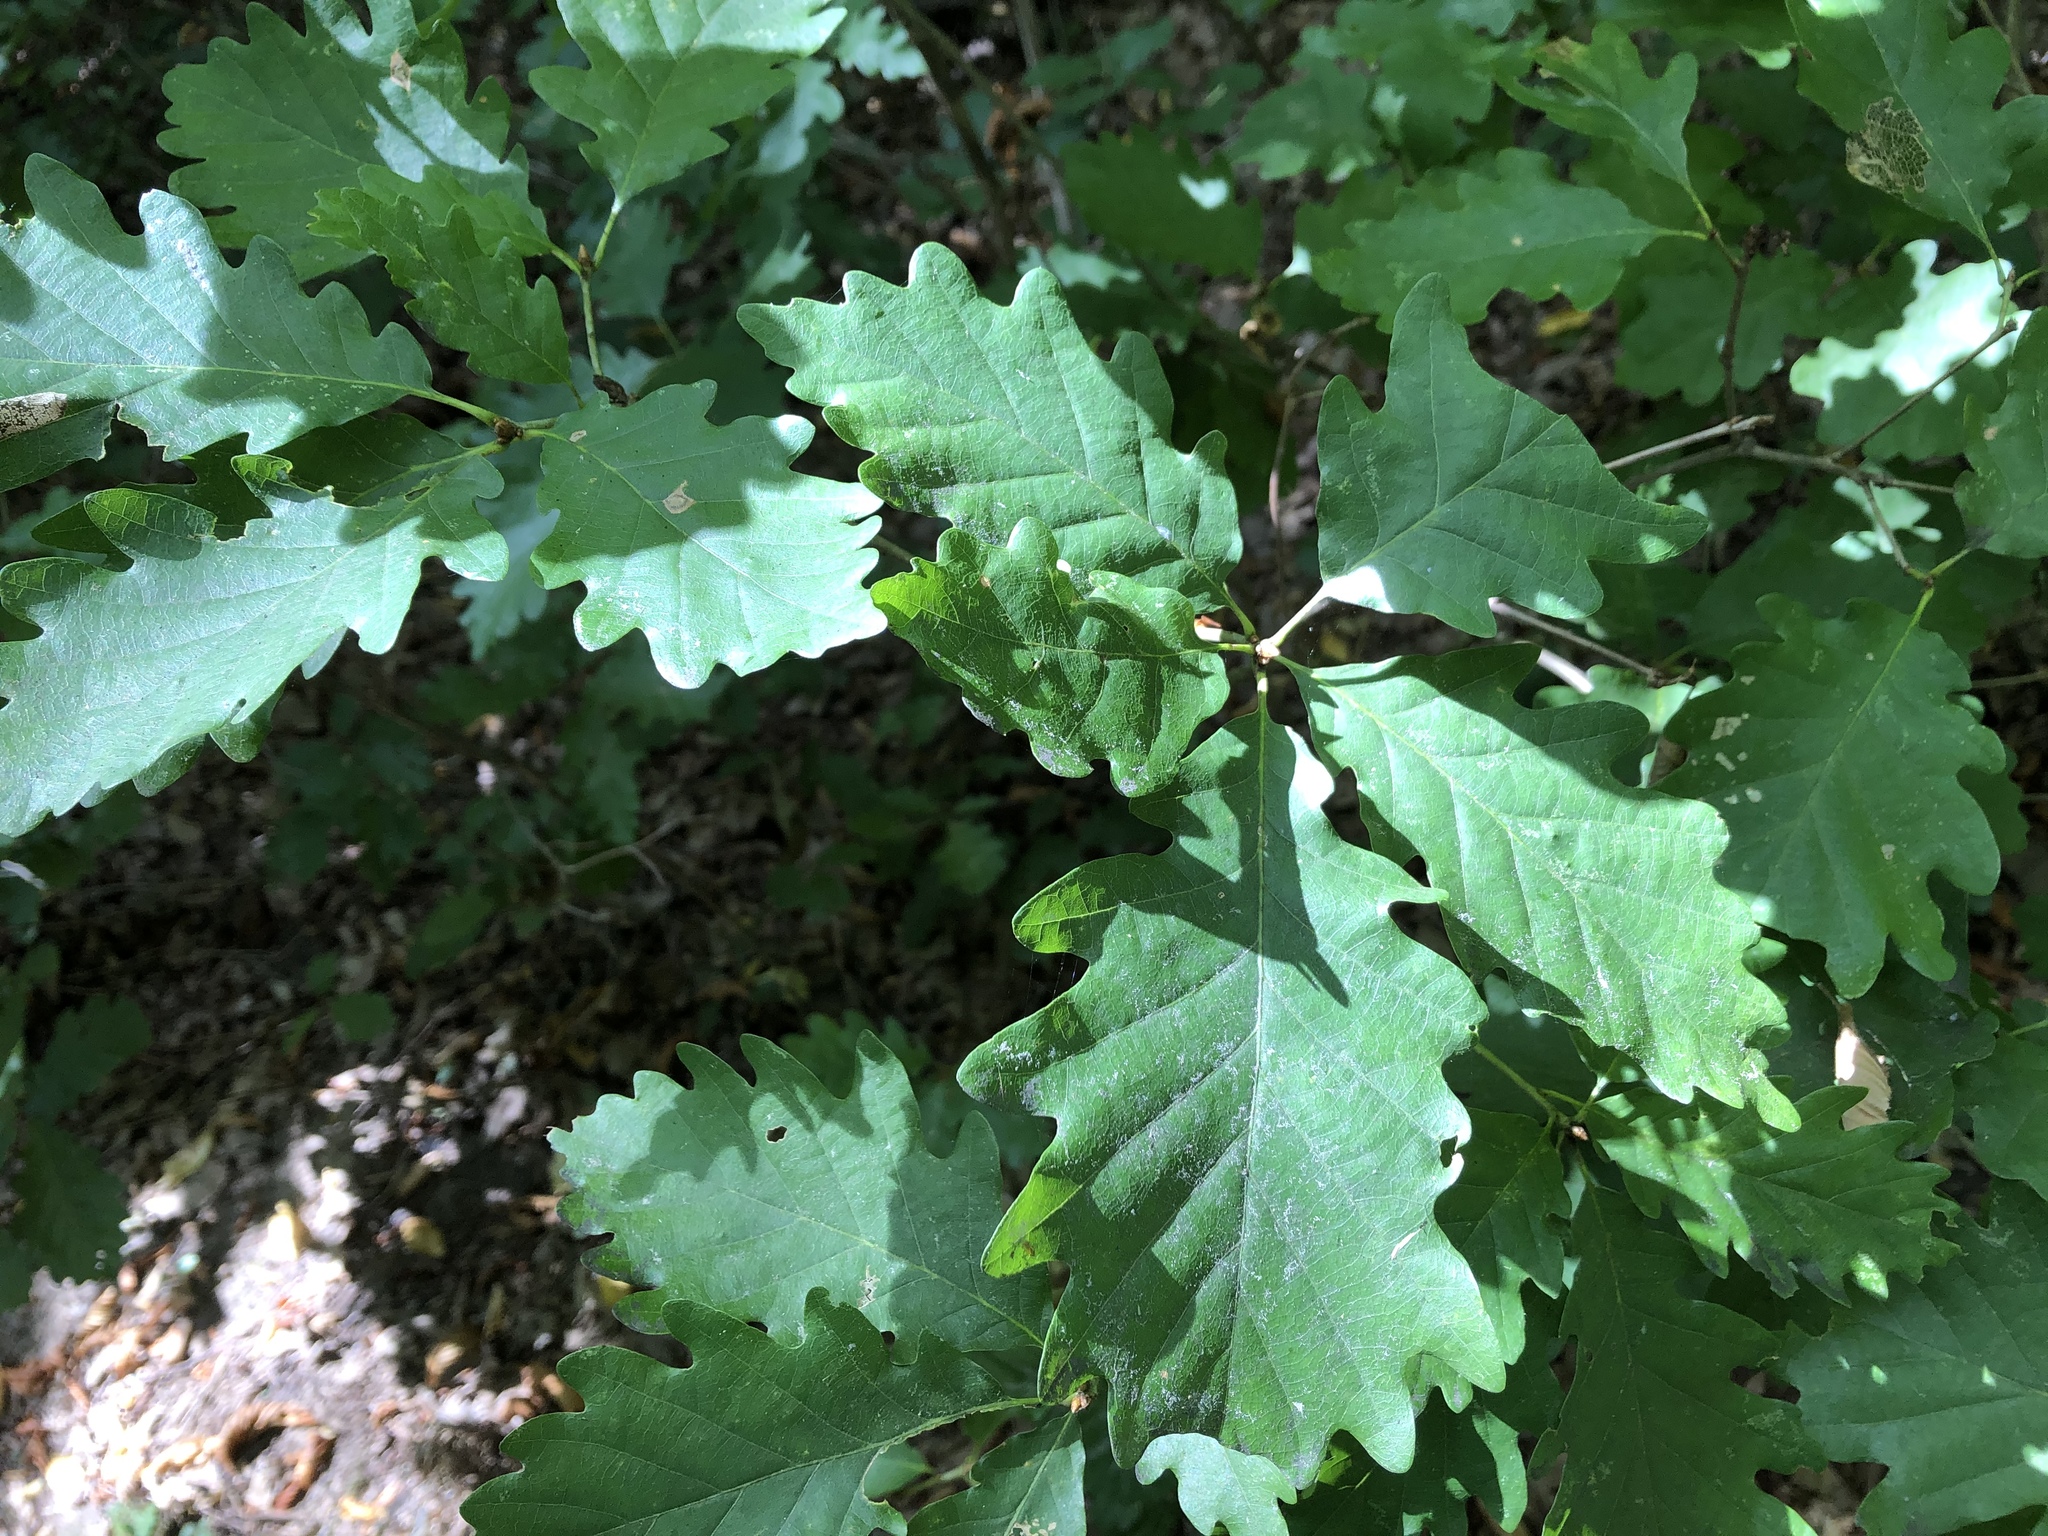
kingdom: Plantae
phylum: Tracheophyta
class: Magnoliopsida
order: Fagales
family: Fagaceae
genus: Quercus
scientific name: Quercus petraea
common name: Sessile oak
